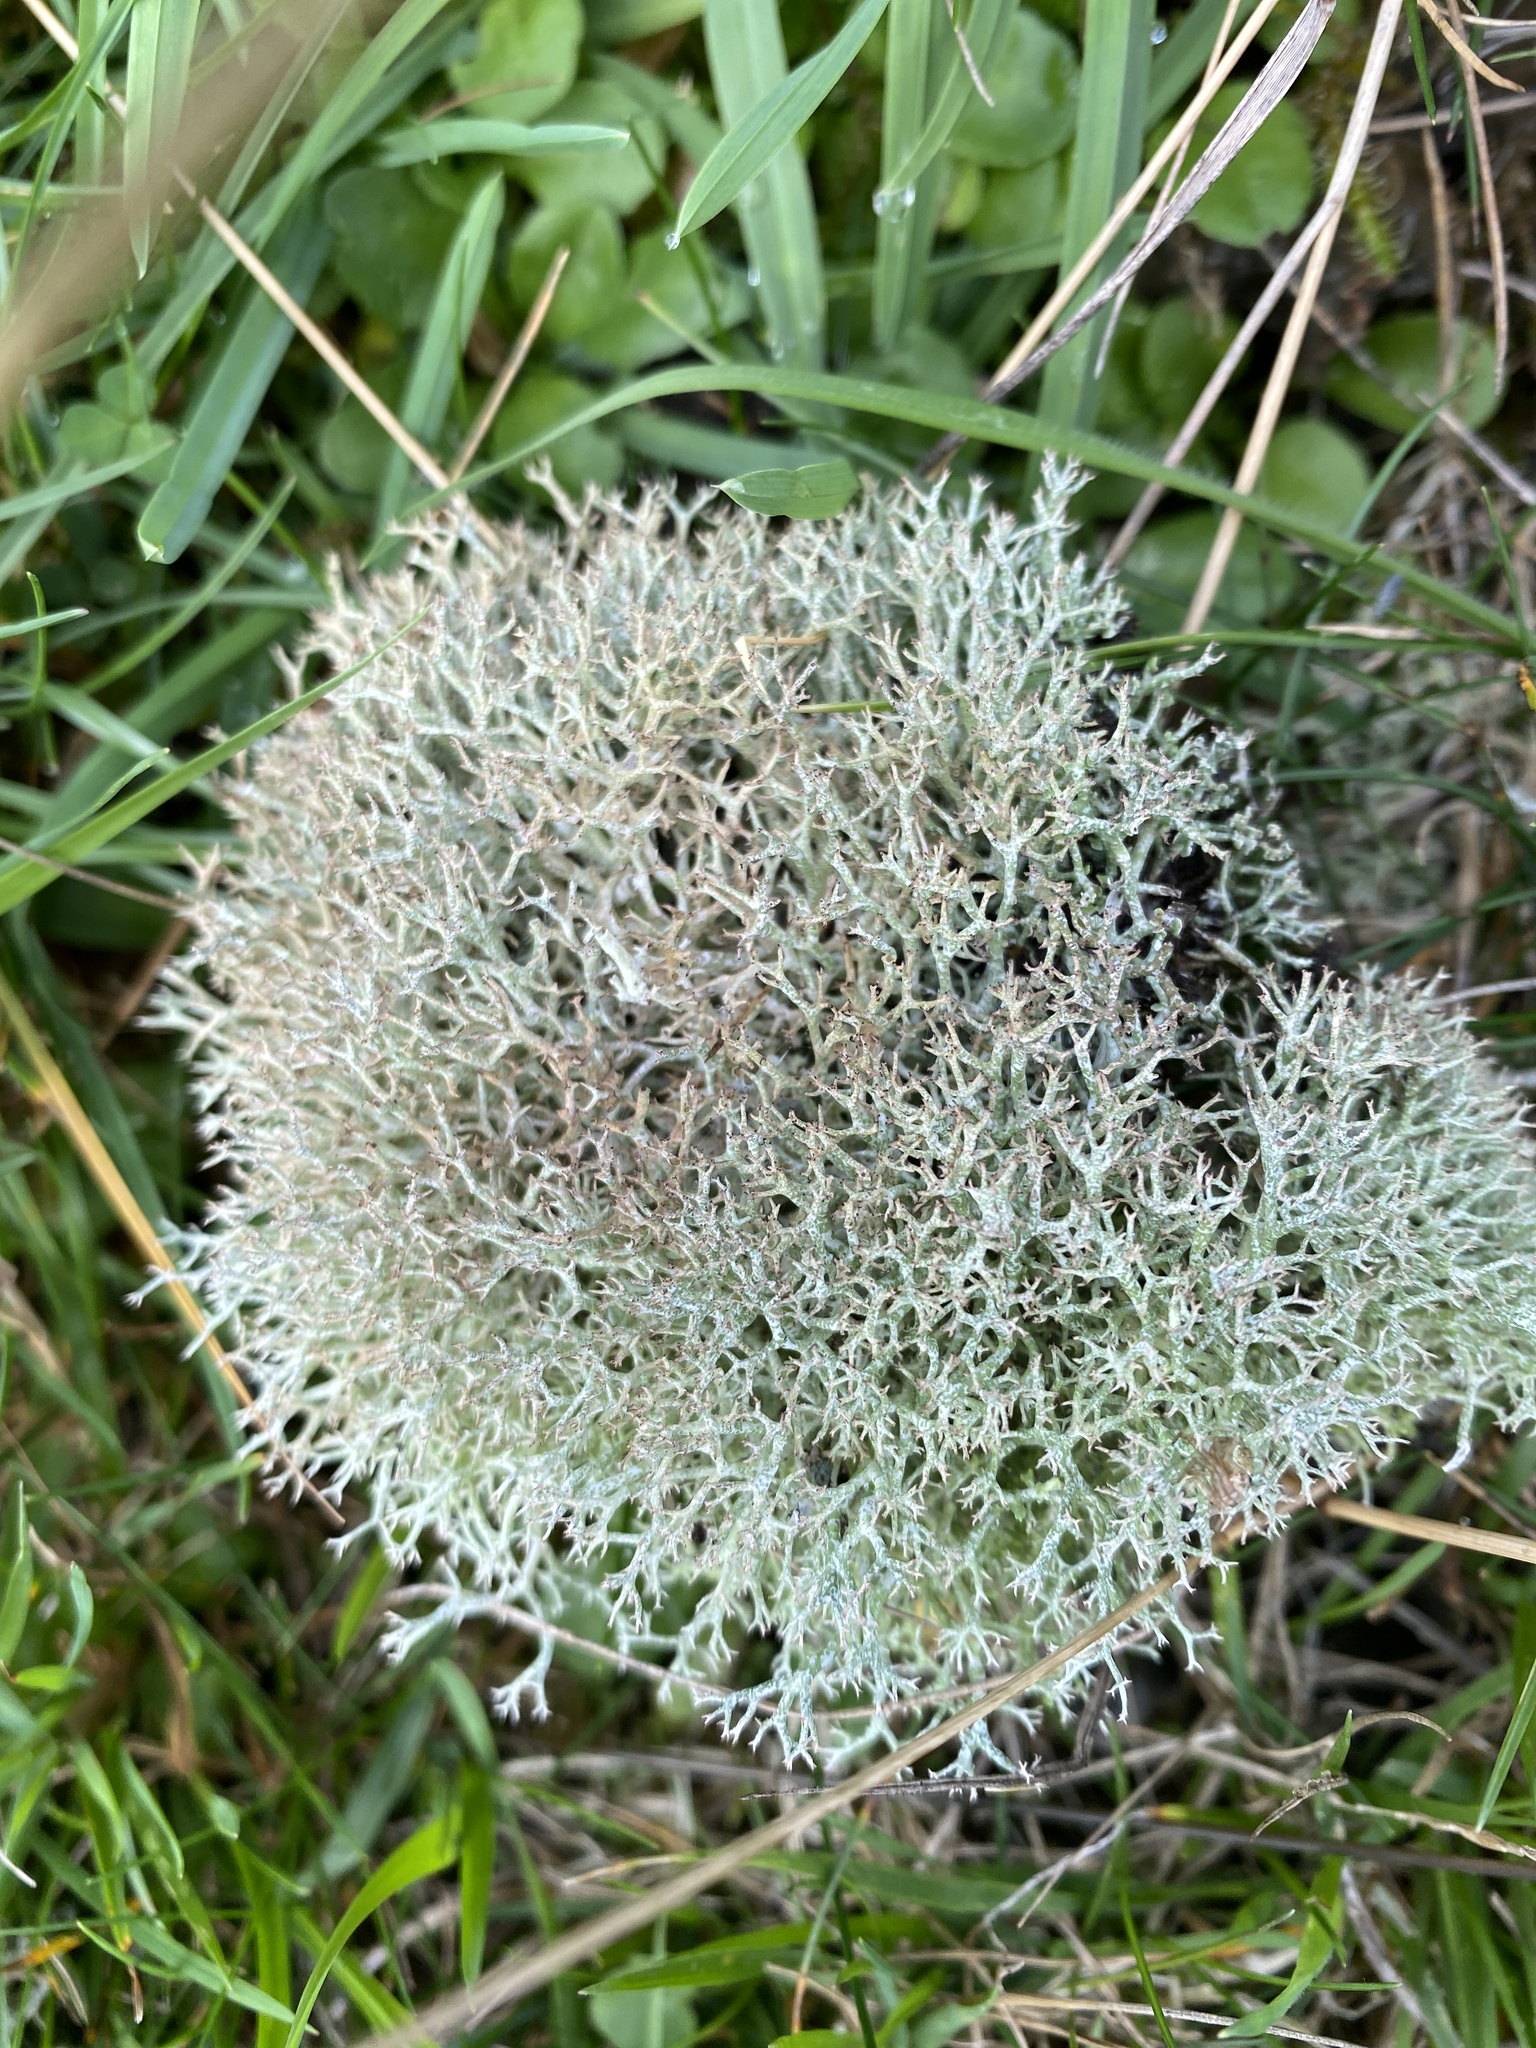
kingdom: Fungi
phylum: Ascomycota
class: Lecanoromycetes
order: Lecanorales
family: Cladoniaceae
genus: Cladonia
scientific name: Cladonia rangiformis
